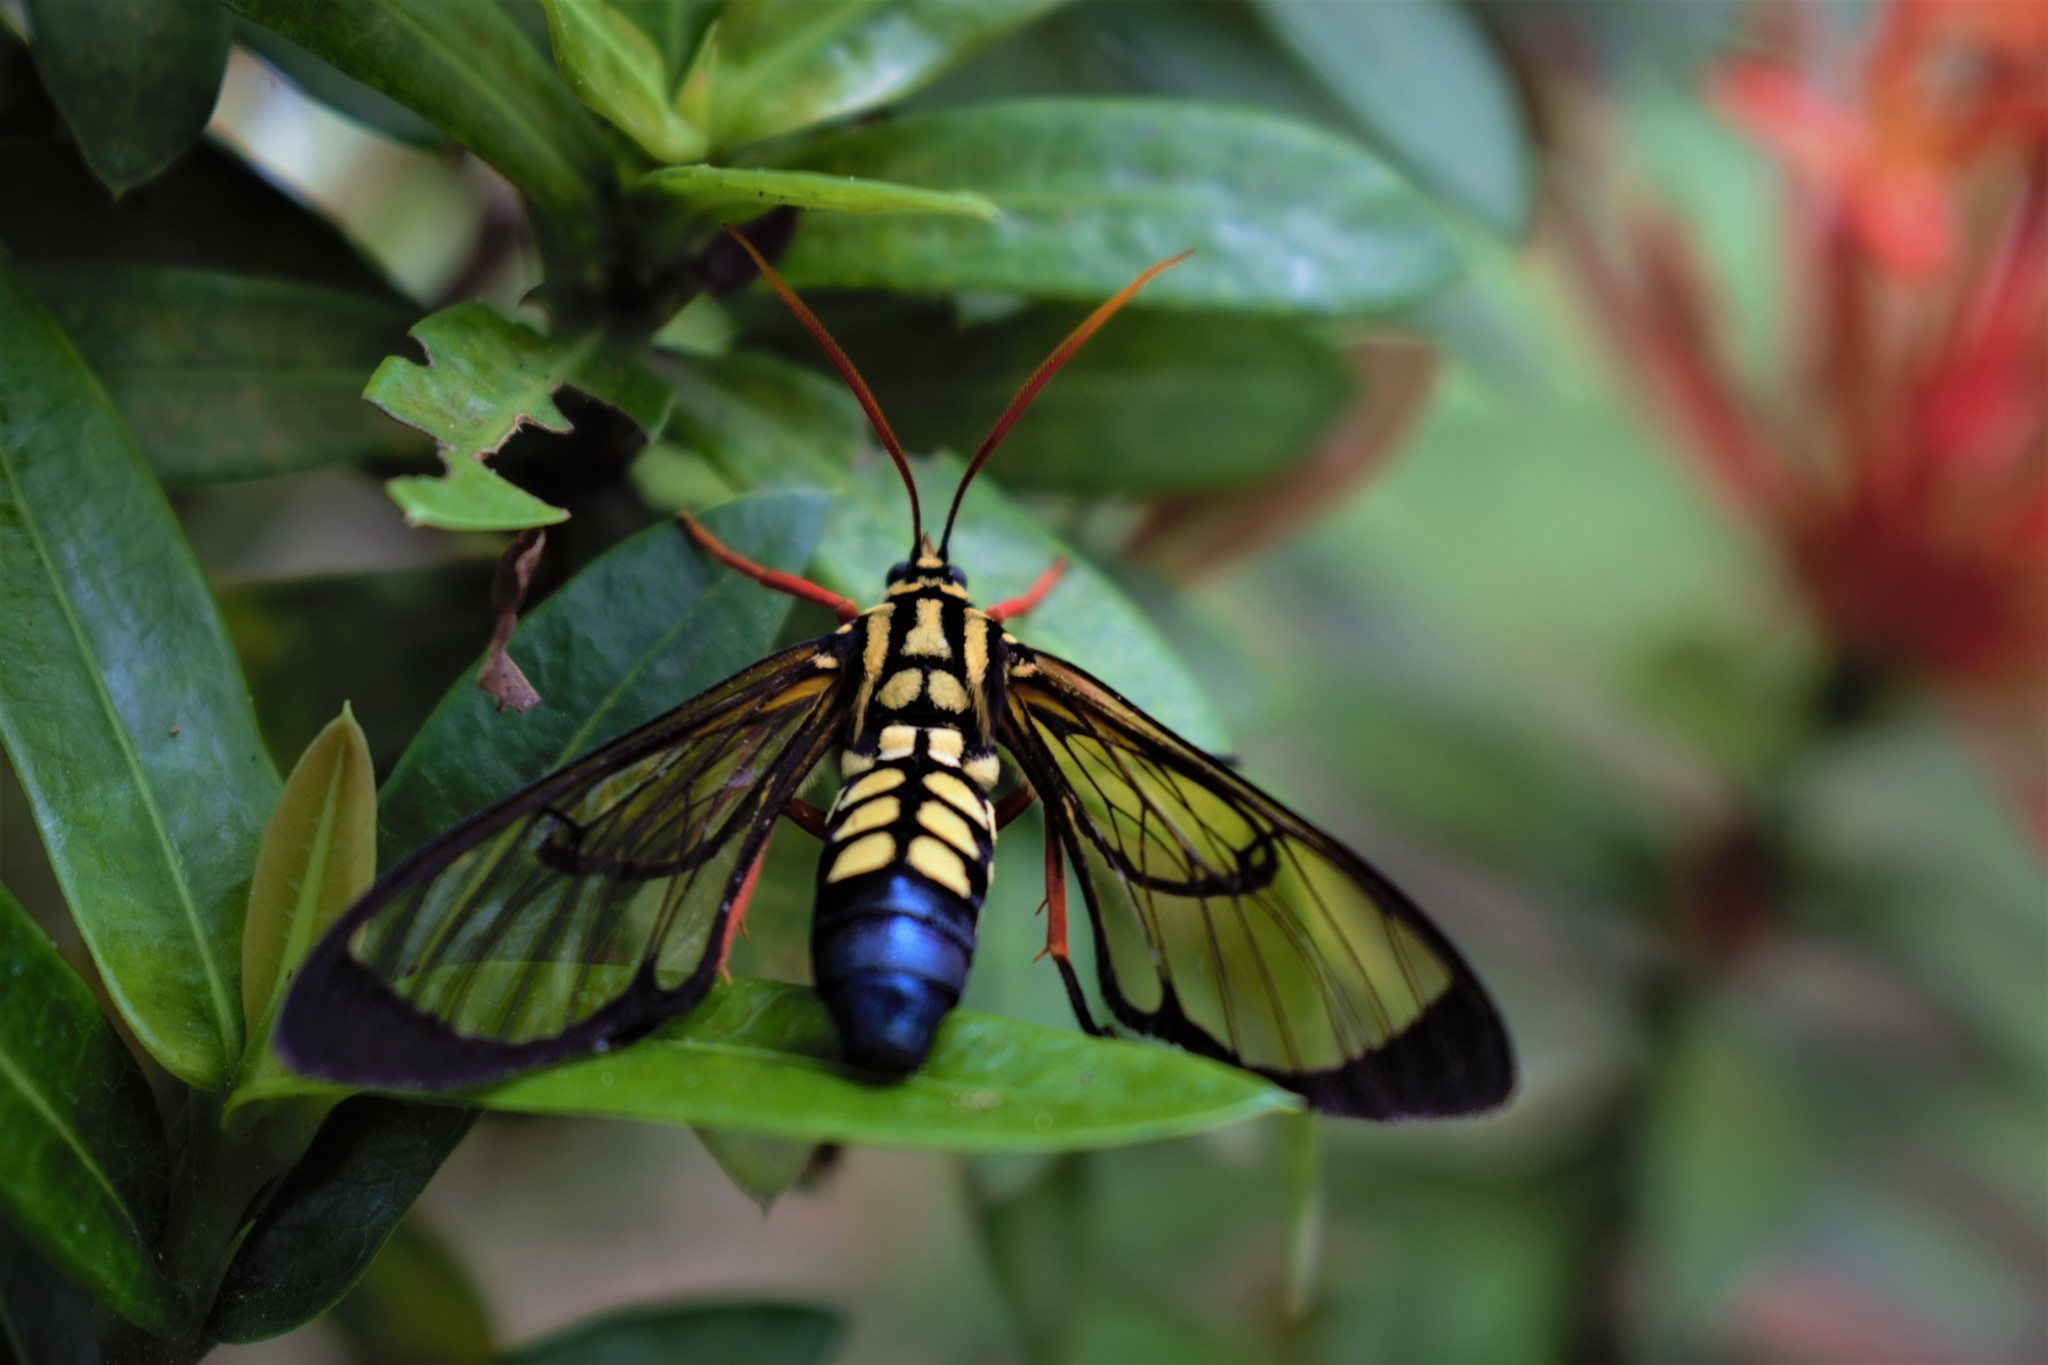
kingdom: Animalia
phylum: Arthropoda
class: Insecta
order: Lepidoptera
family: Erebidae
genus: Isanthrene
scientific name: Isanthrene crabroniformis
